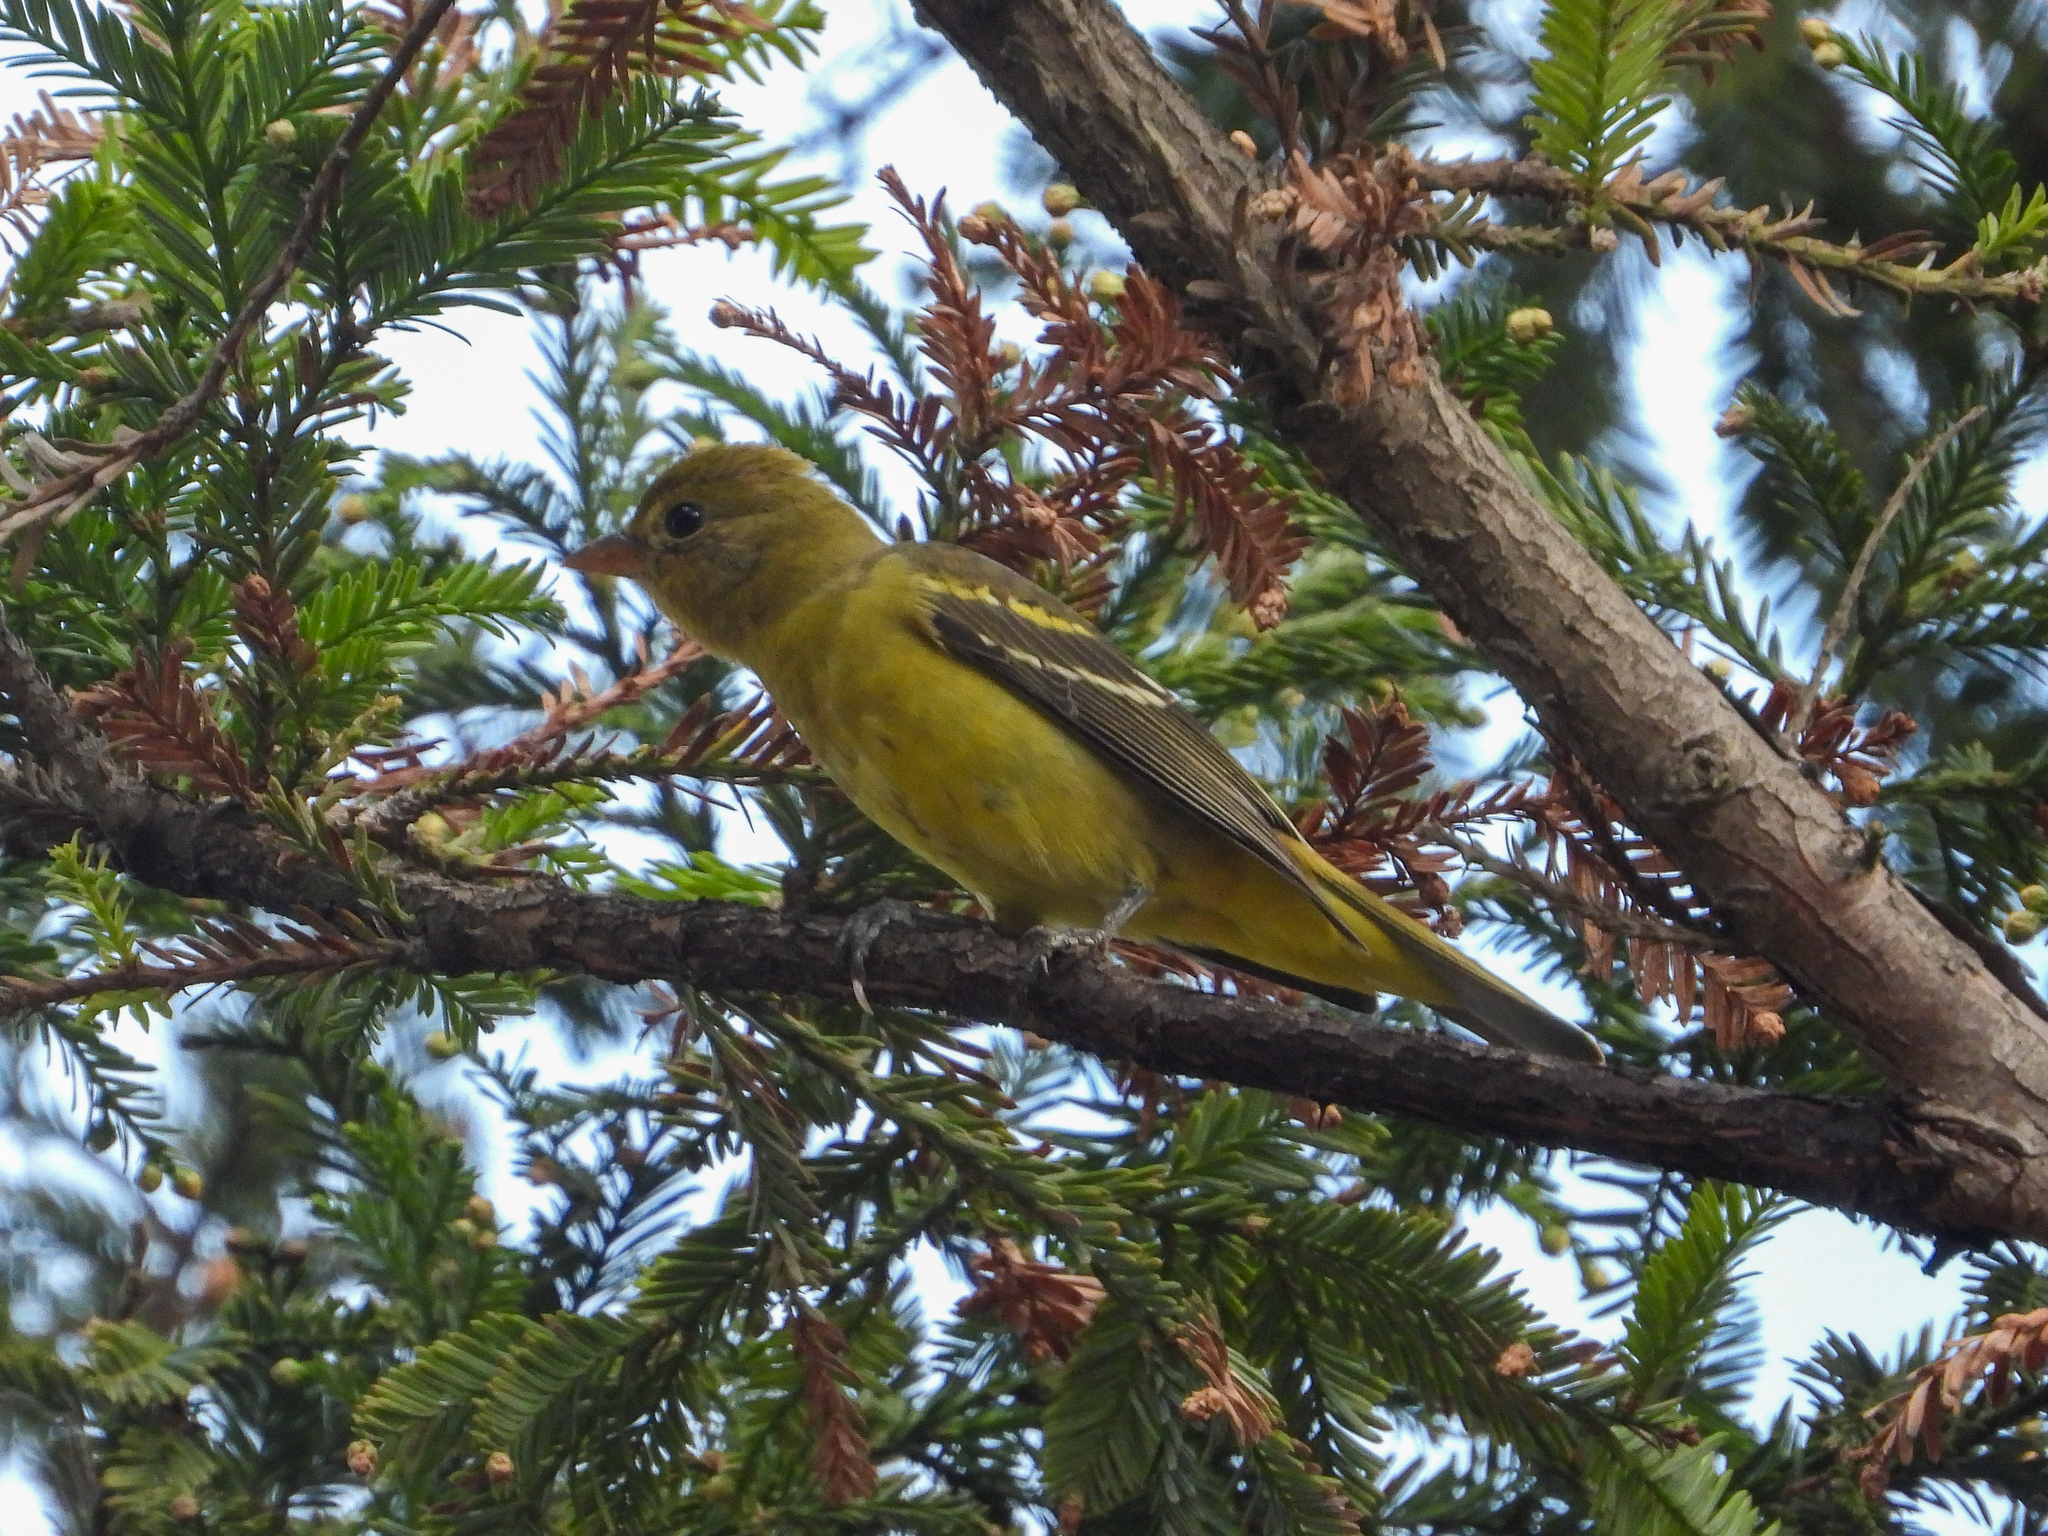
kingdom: Animalia
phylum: Chordata
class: Aves
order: Passeriformes
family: Cardinalidae
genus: Piranga
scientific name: Piranga ludoviciana
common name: Western tanager
